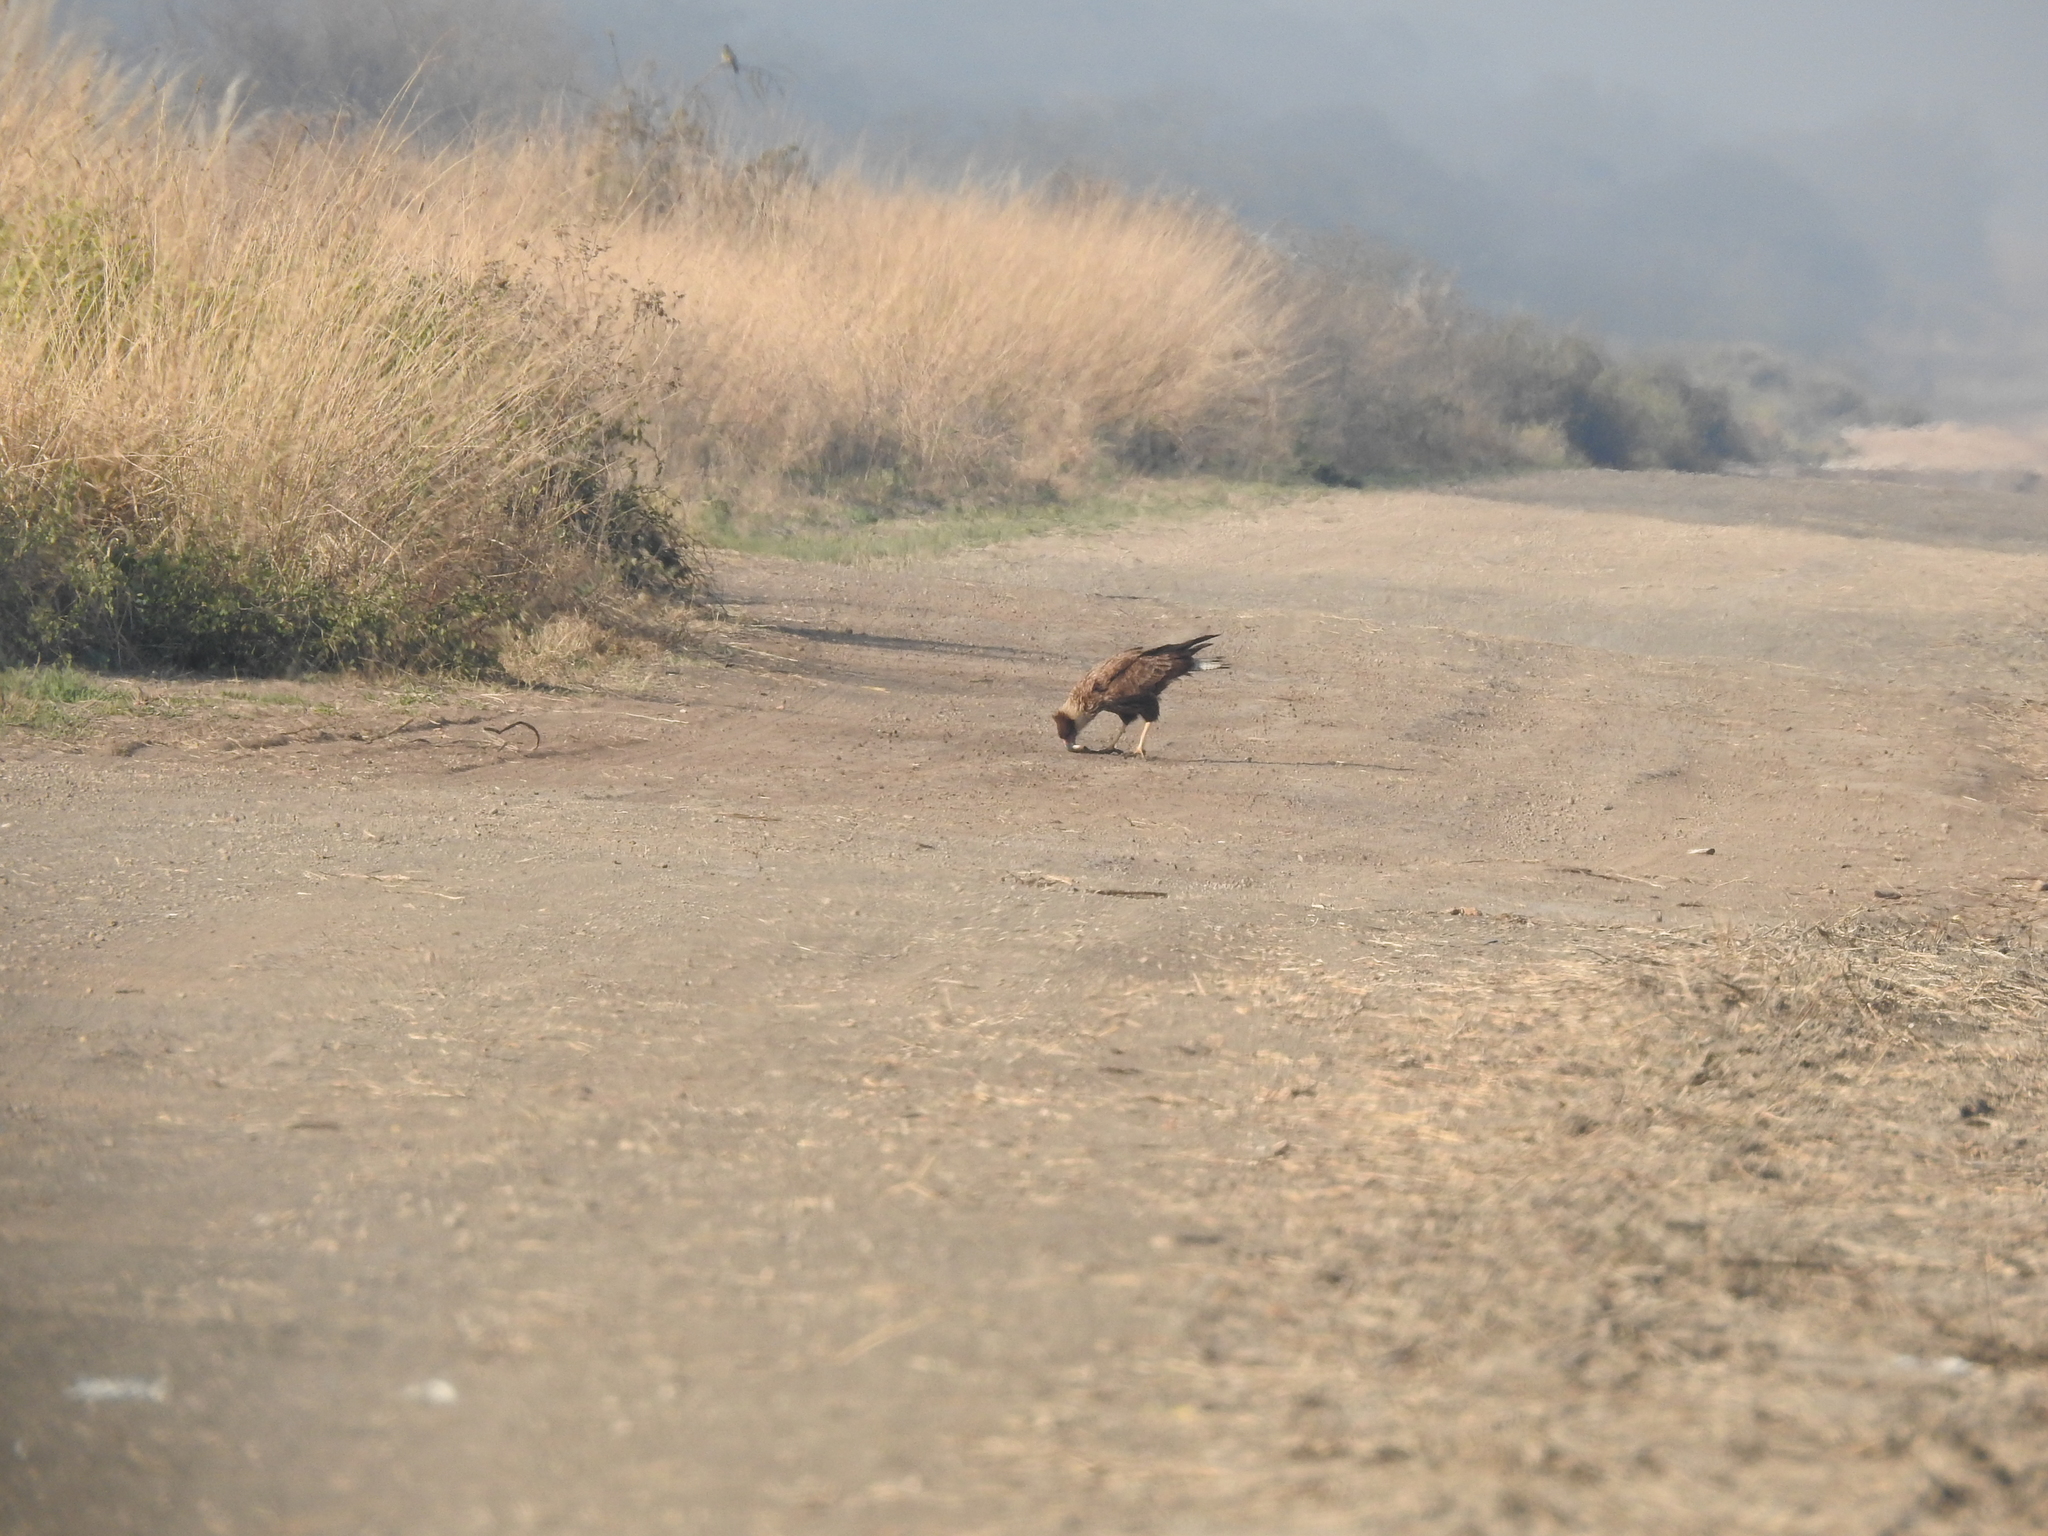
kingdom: Animalia
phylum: Chordata
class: Aves
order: Falconiformes
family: Falconidae
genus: Caracara
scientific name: Caracara plancus
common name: Southern caracara
